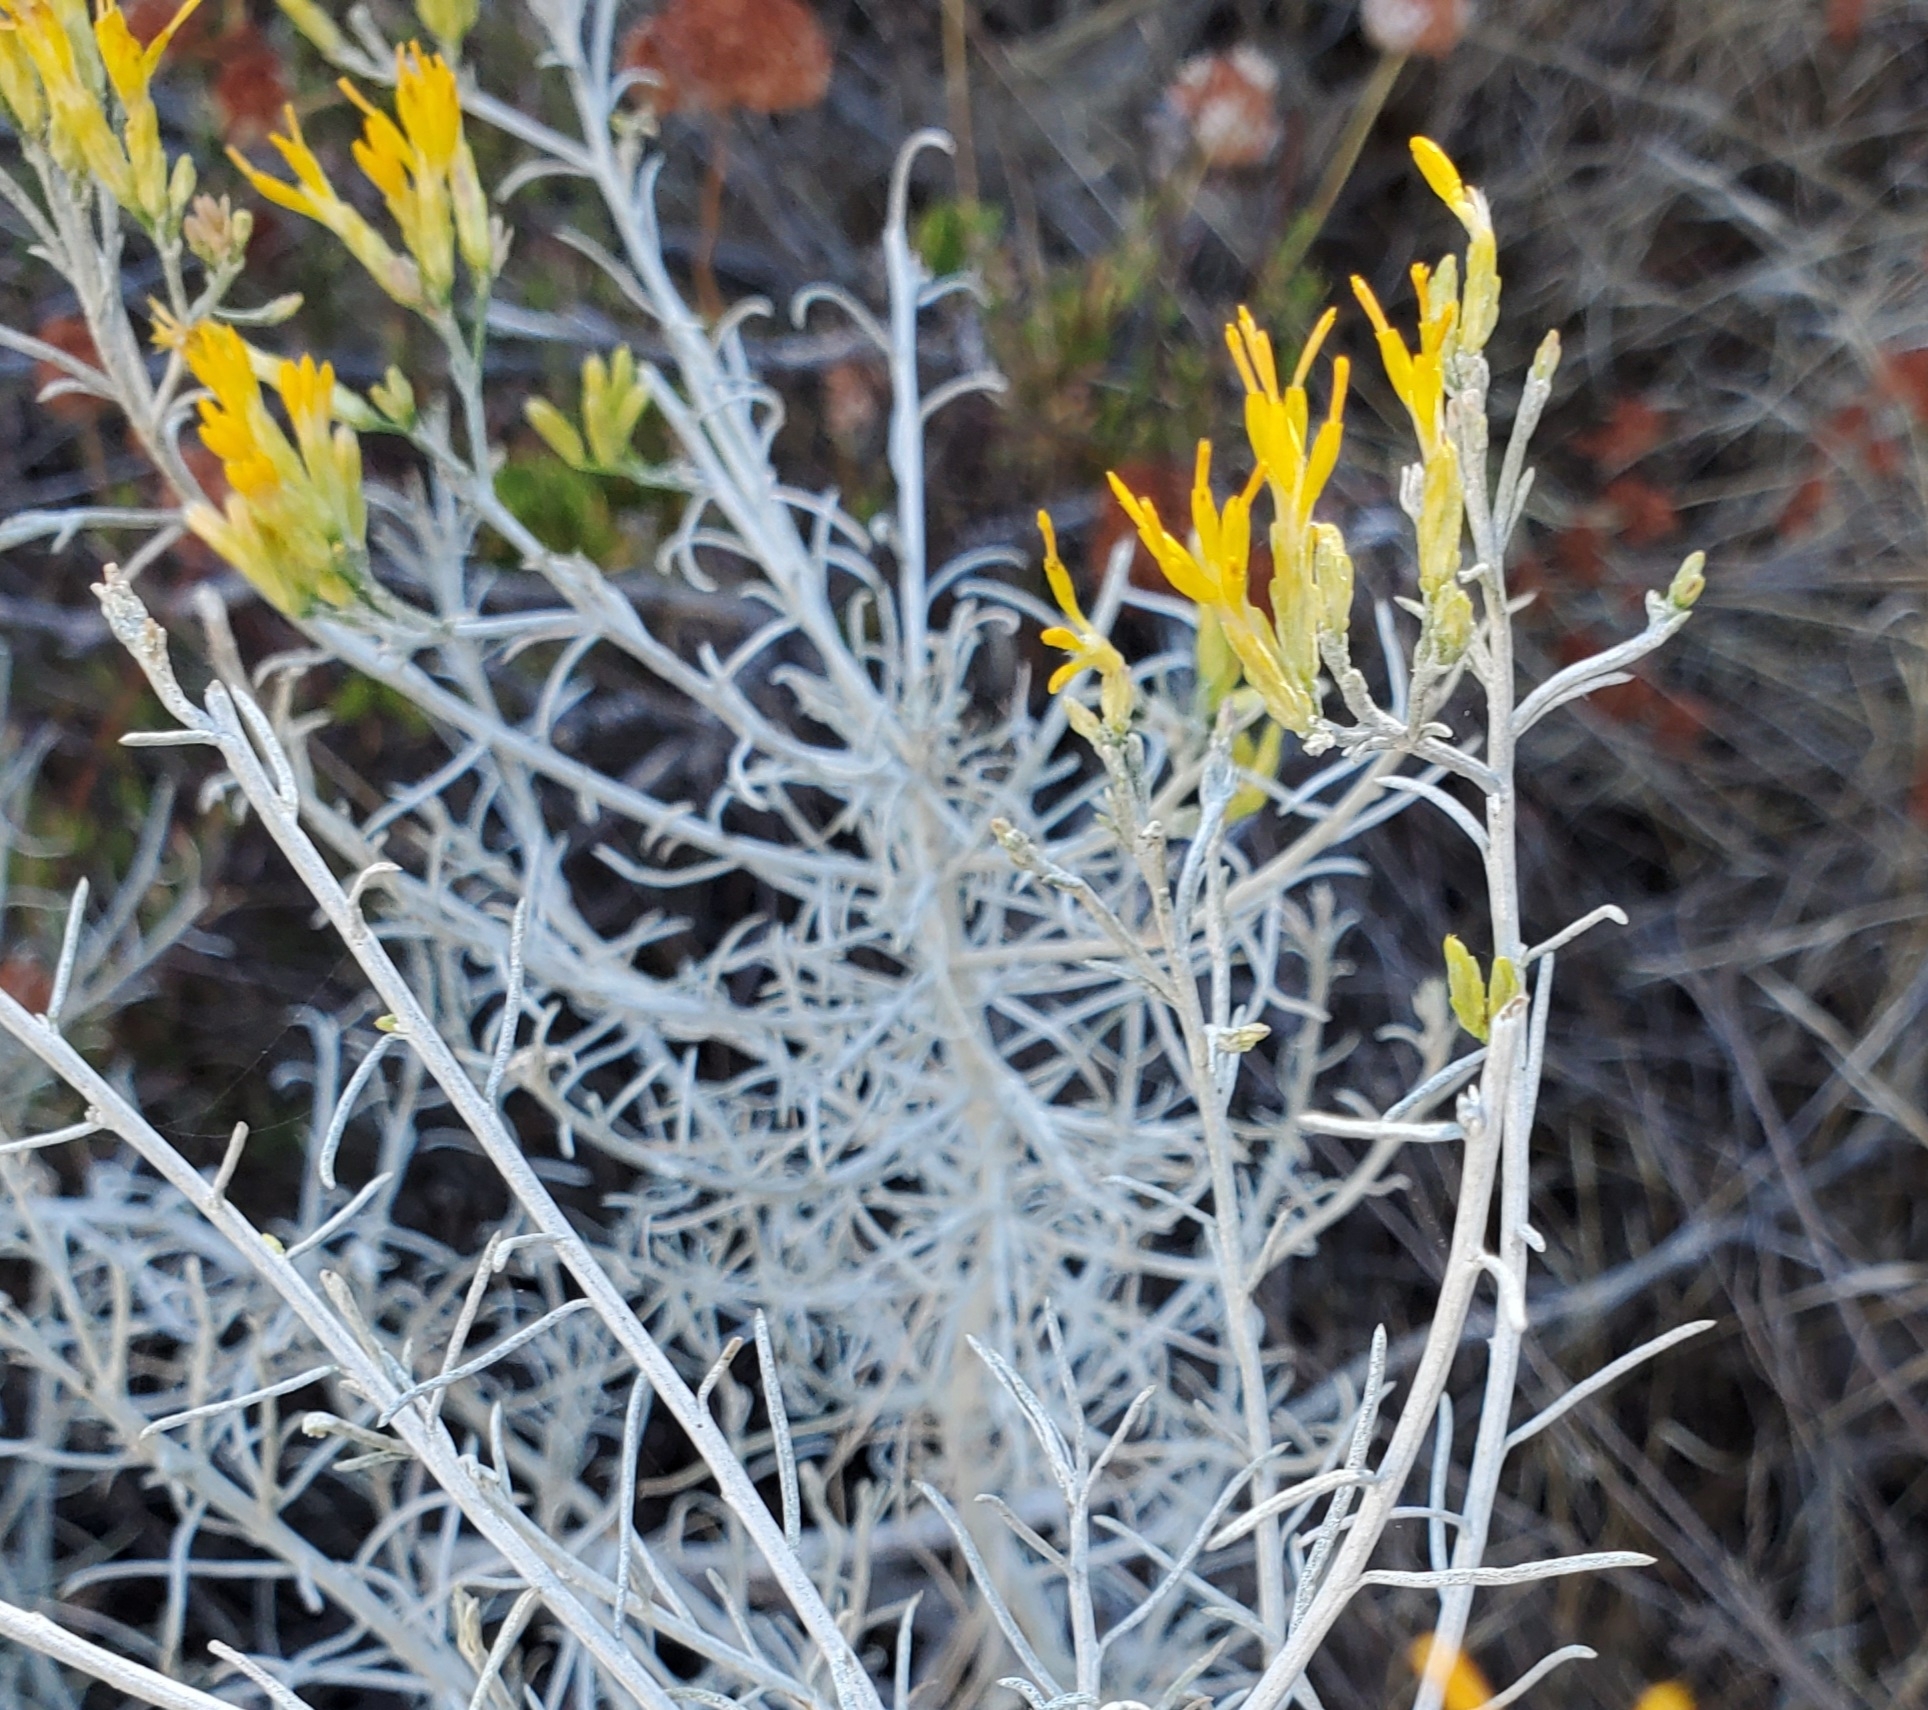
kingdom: Plantae
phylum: Tracheophyta
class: Magnoliopsida
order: Asterales
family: Asteraceae
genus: Ericameria
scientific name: Ericameria nauseosa
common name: Rubber rabbitbrush
